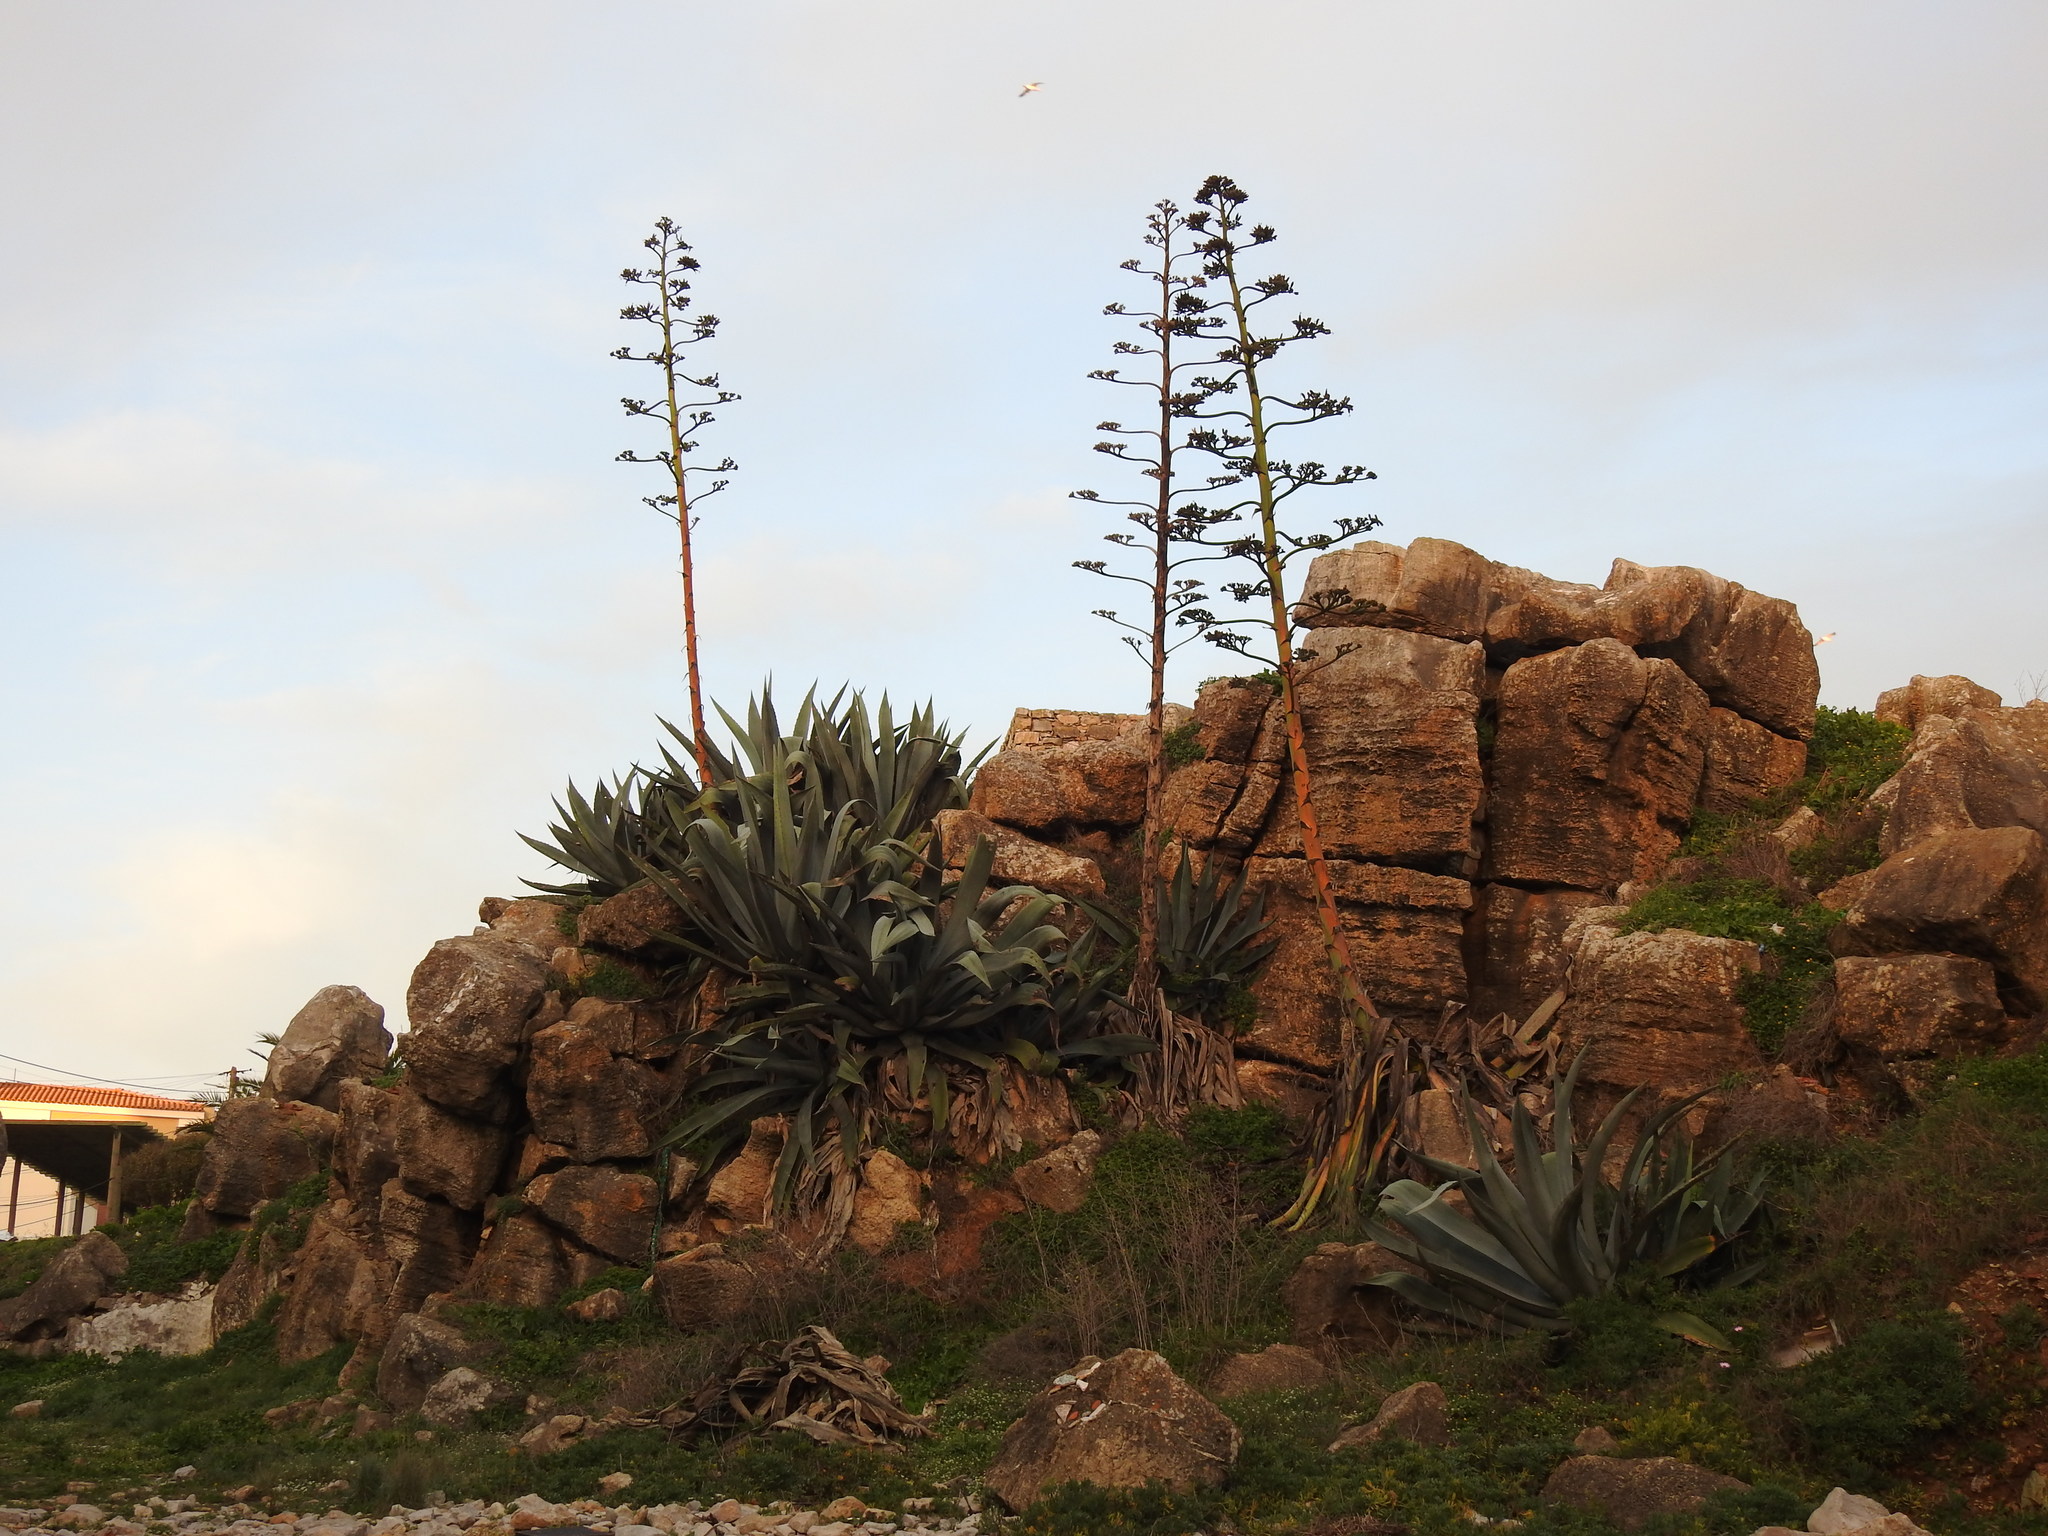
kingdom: Plantae
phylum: Tracheophyta
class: Liliopsida
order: Asparagales
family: Asparagaceae
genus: Agave
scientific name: Agave americana
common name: Centuryplant
